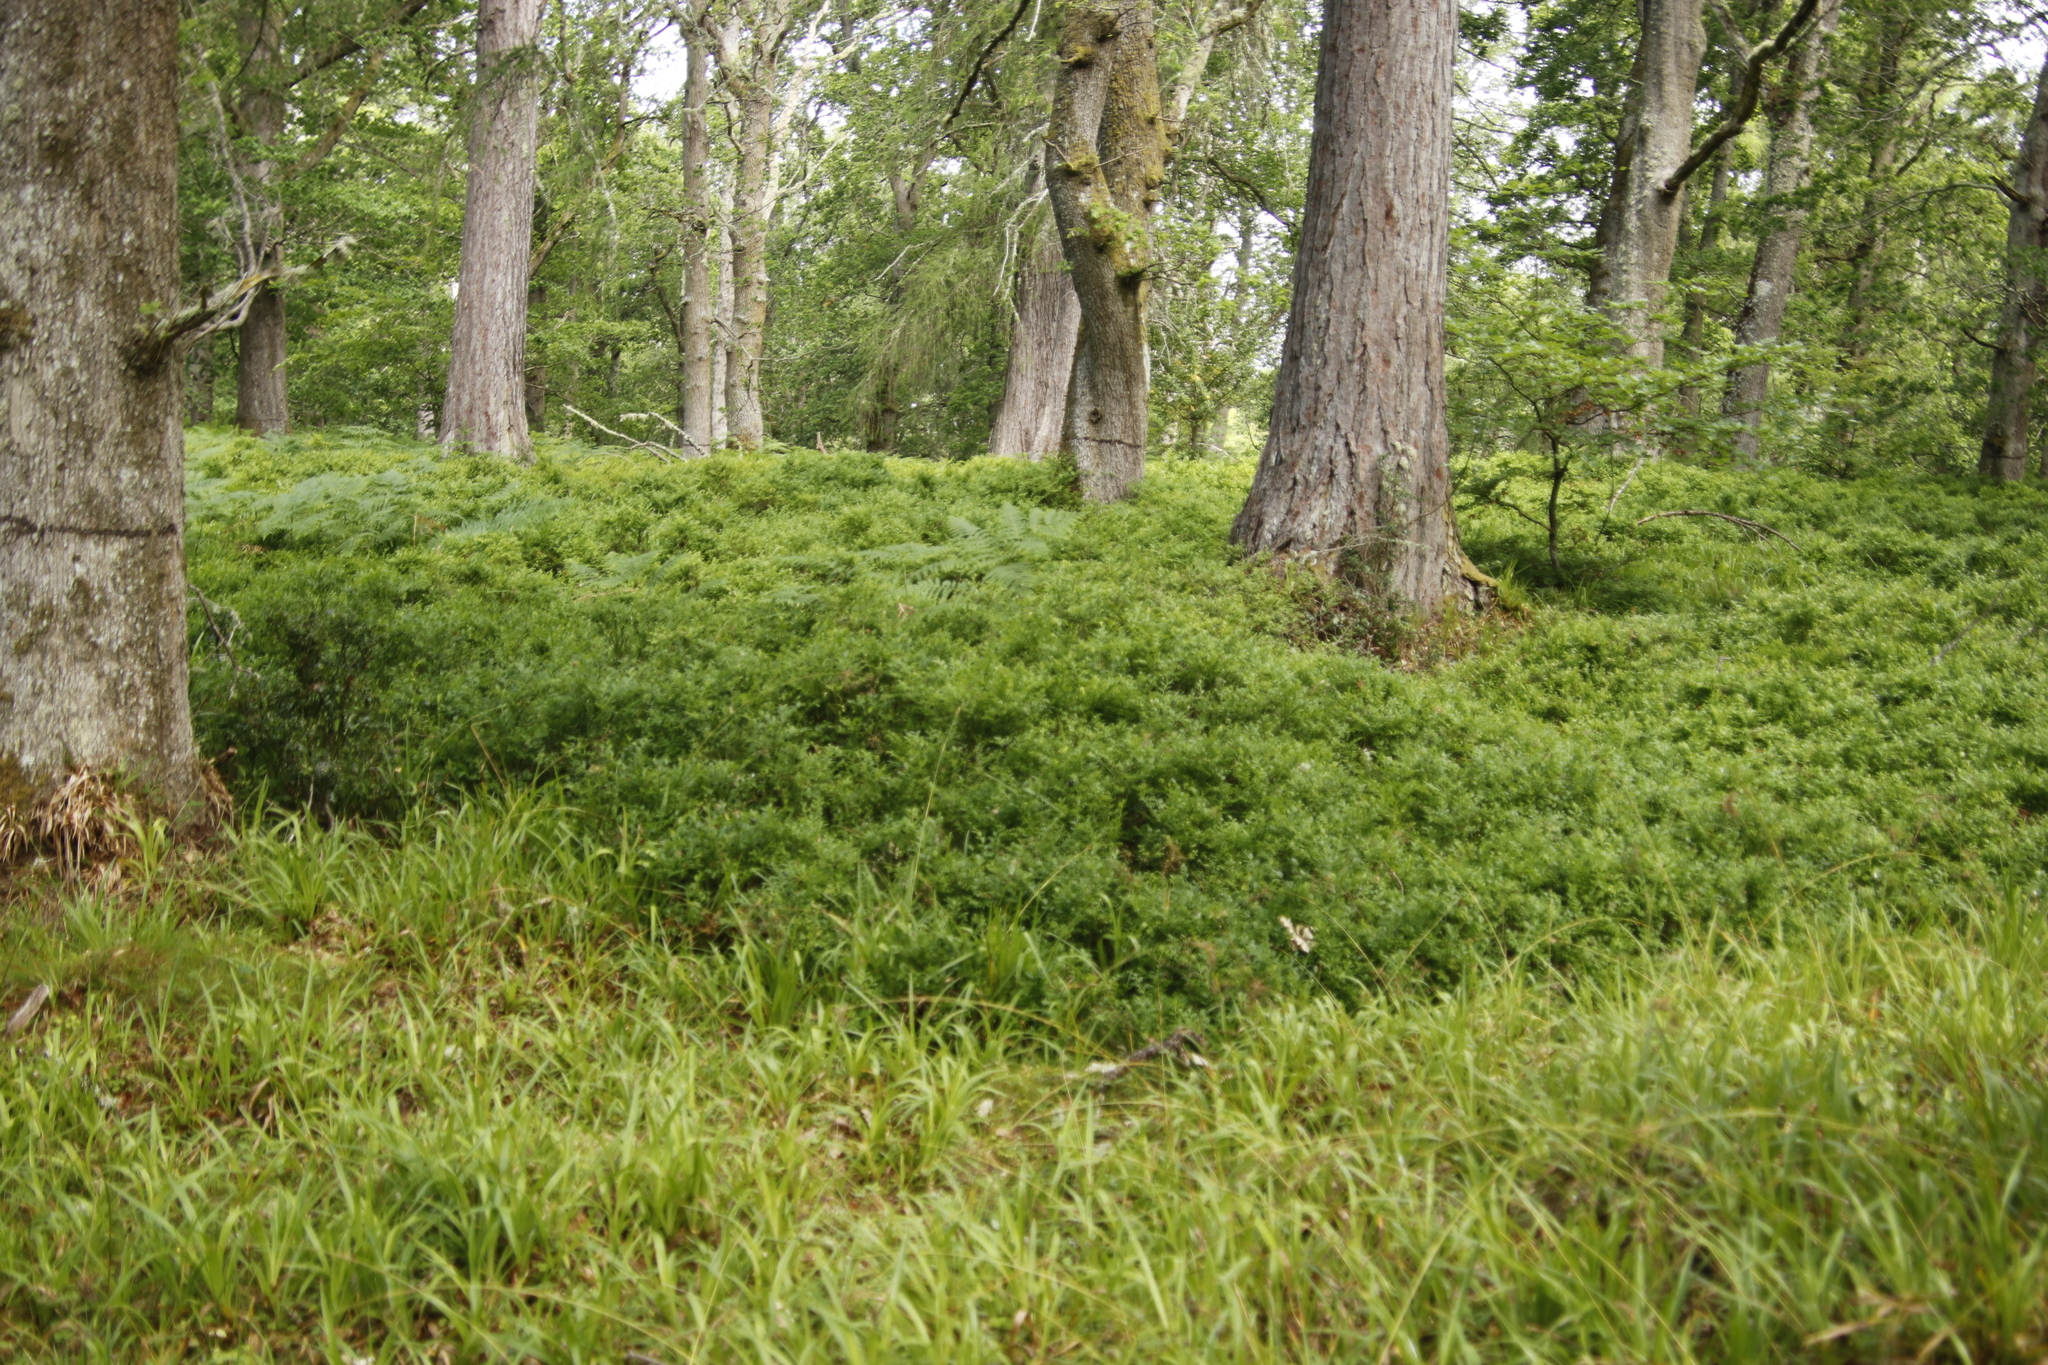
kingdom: Plantae
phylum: Tracheophyta
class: Magnoliopsida
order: Ericales
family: Ericaceae
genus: Vaccinium
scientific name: Vaccinium myrtillus
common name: Bilberry
